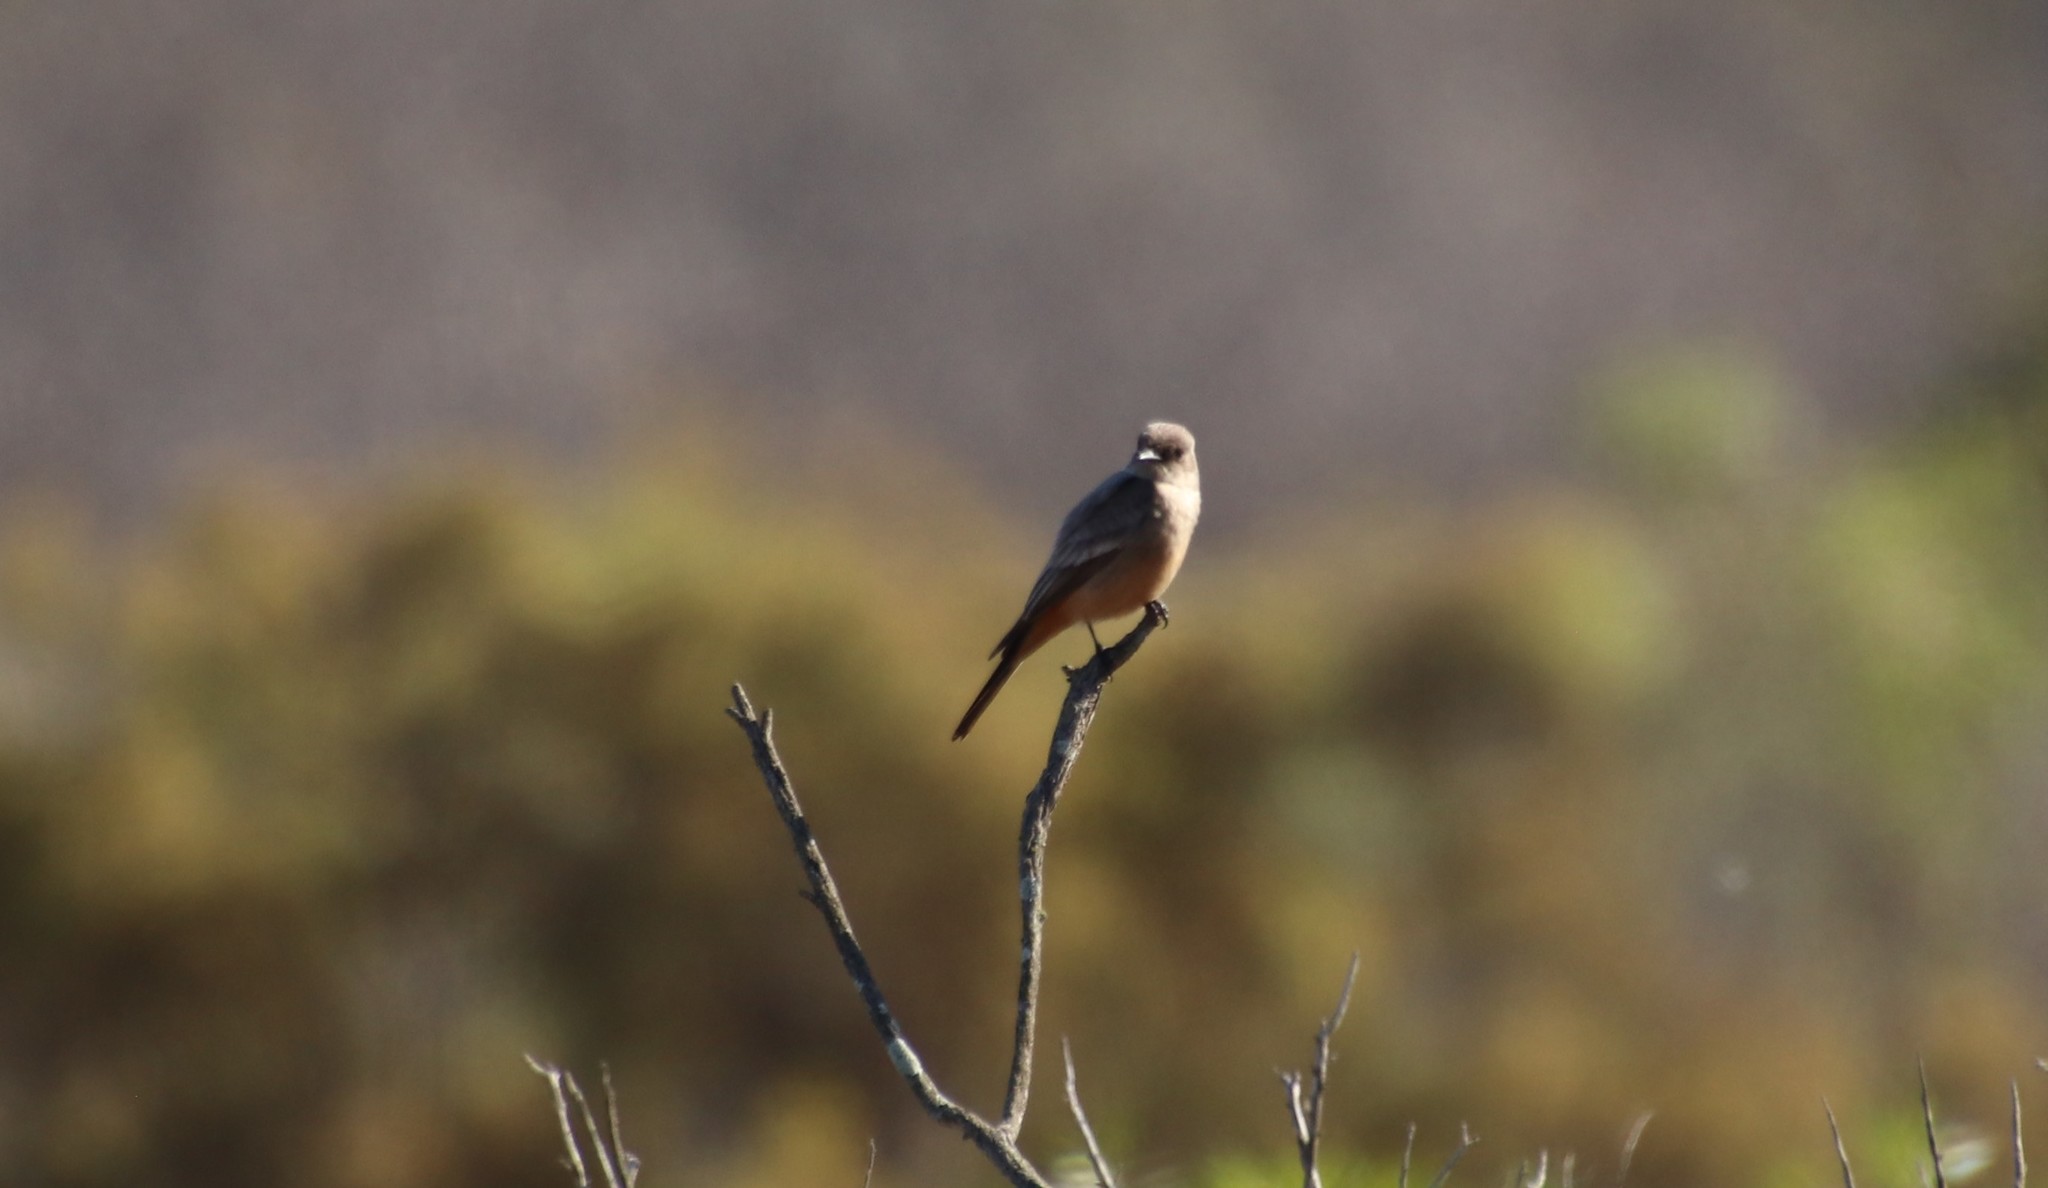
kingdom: Animalia
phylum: Chordata
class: Aves
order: Passeriformes
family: Tyrannidae
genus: Sayornis
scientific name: Sayornis saya
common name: Say's phoebe
